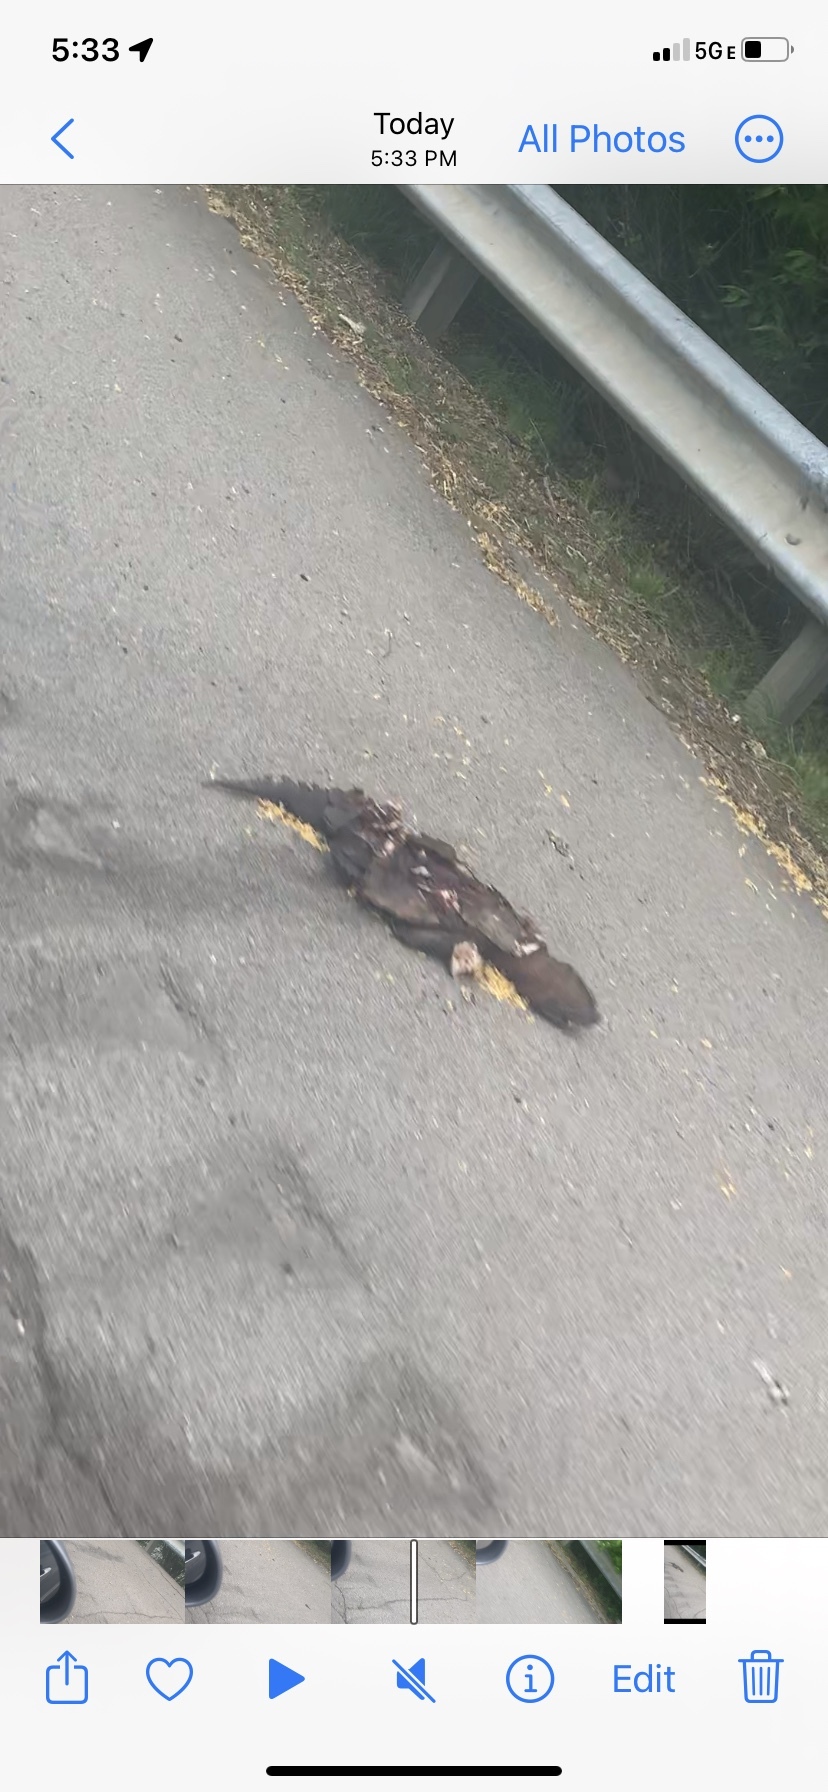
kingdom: Animalia
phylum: Chordata
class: Testudines
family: Chelydridae
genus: Chelydra
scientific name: Chelydra serpentina
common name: Common snapping turtle
